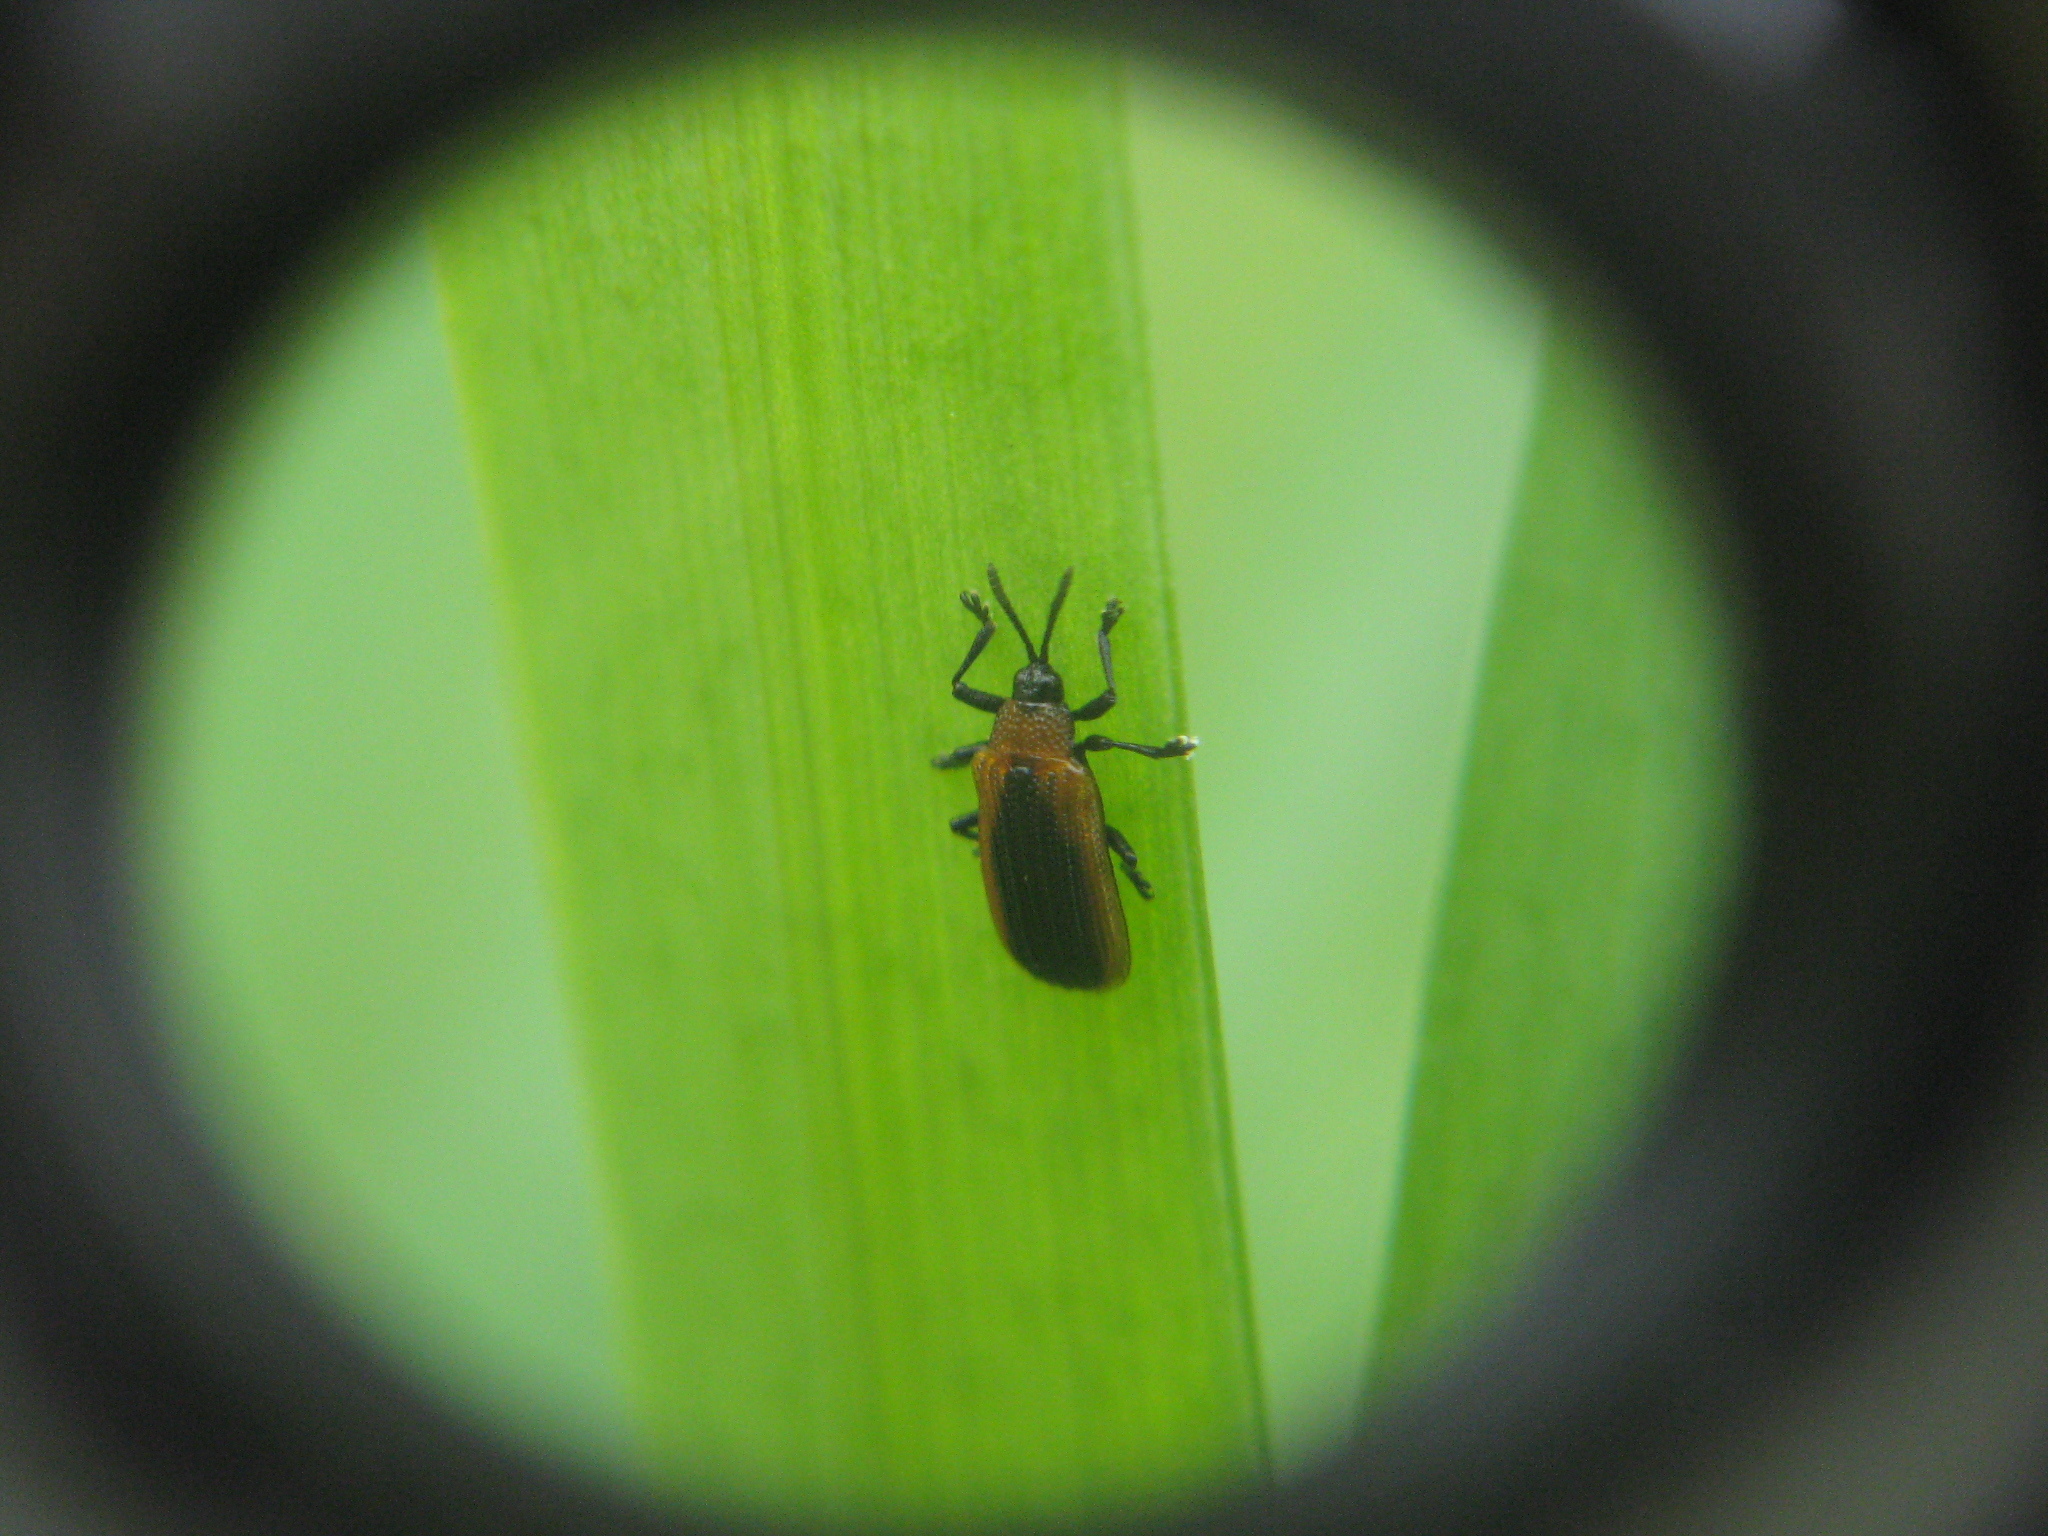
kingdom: Animalia
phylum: Arthropoda
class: Insecta
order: Coleoptera
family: Chrysomelidae
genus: Odontota
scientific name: Odontota dorsalis
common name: Locust leaf-miner beetle
